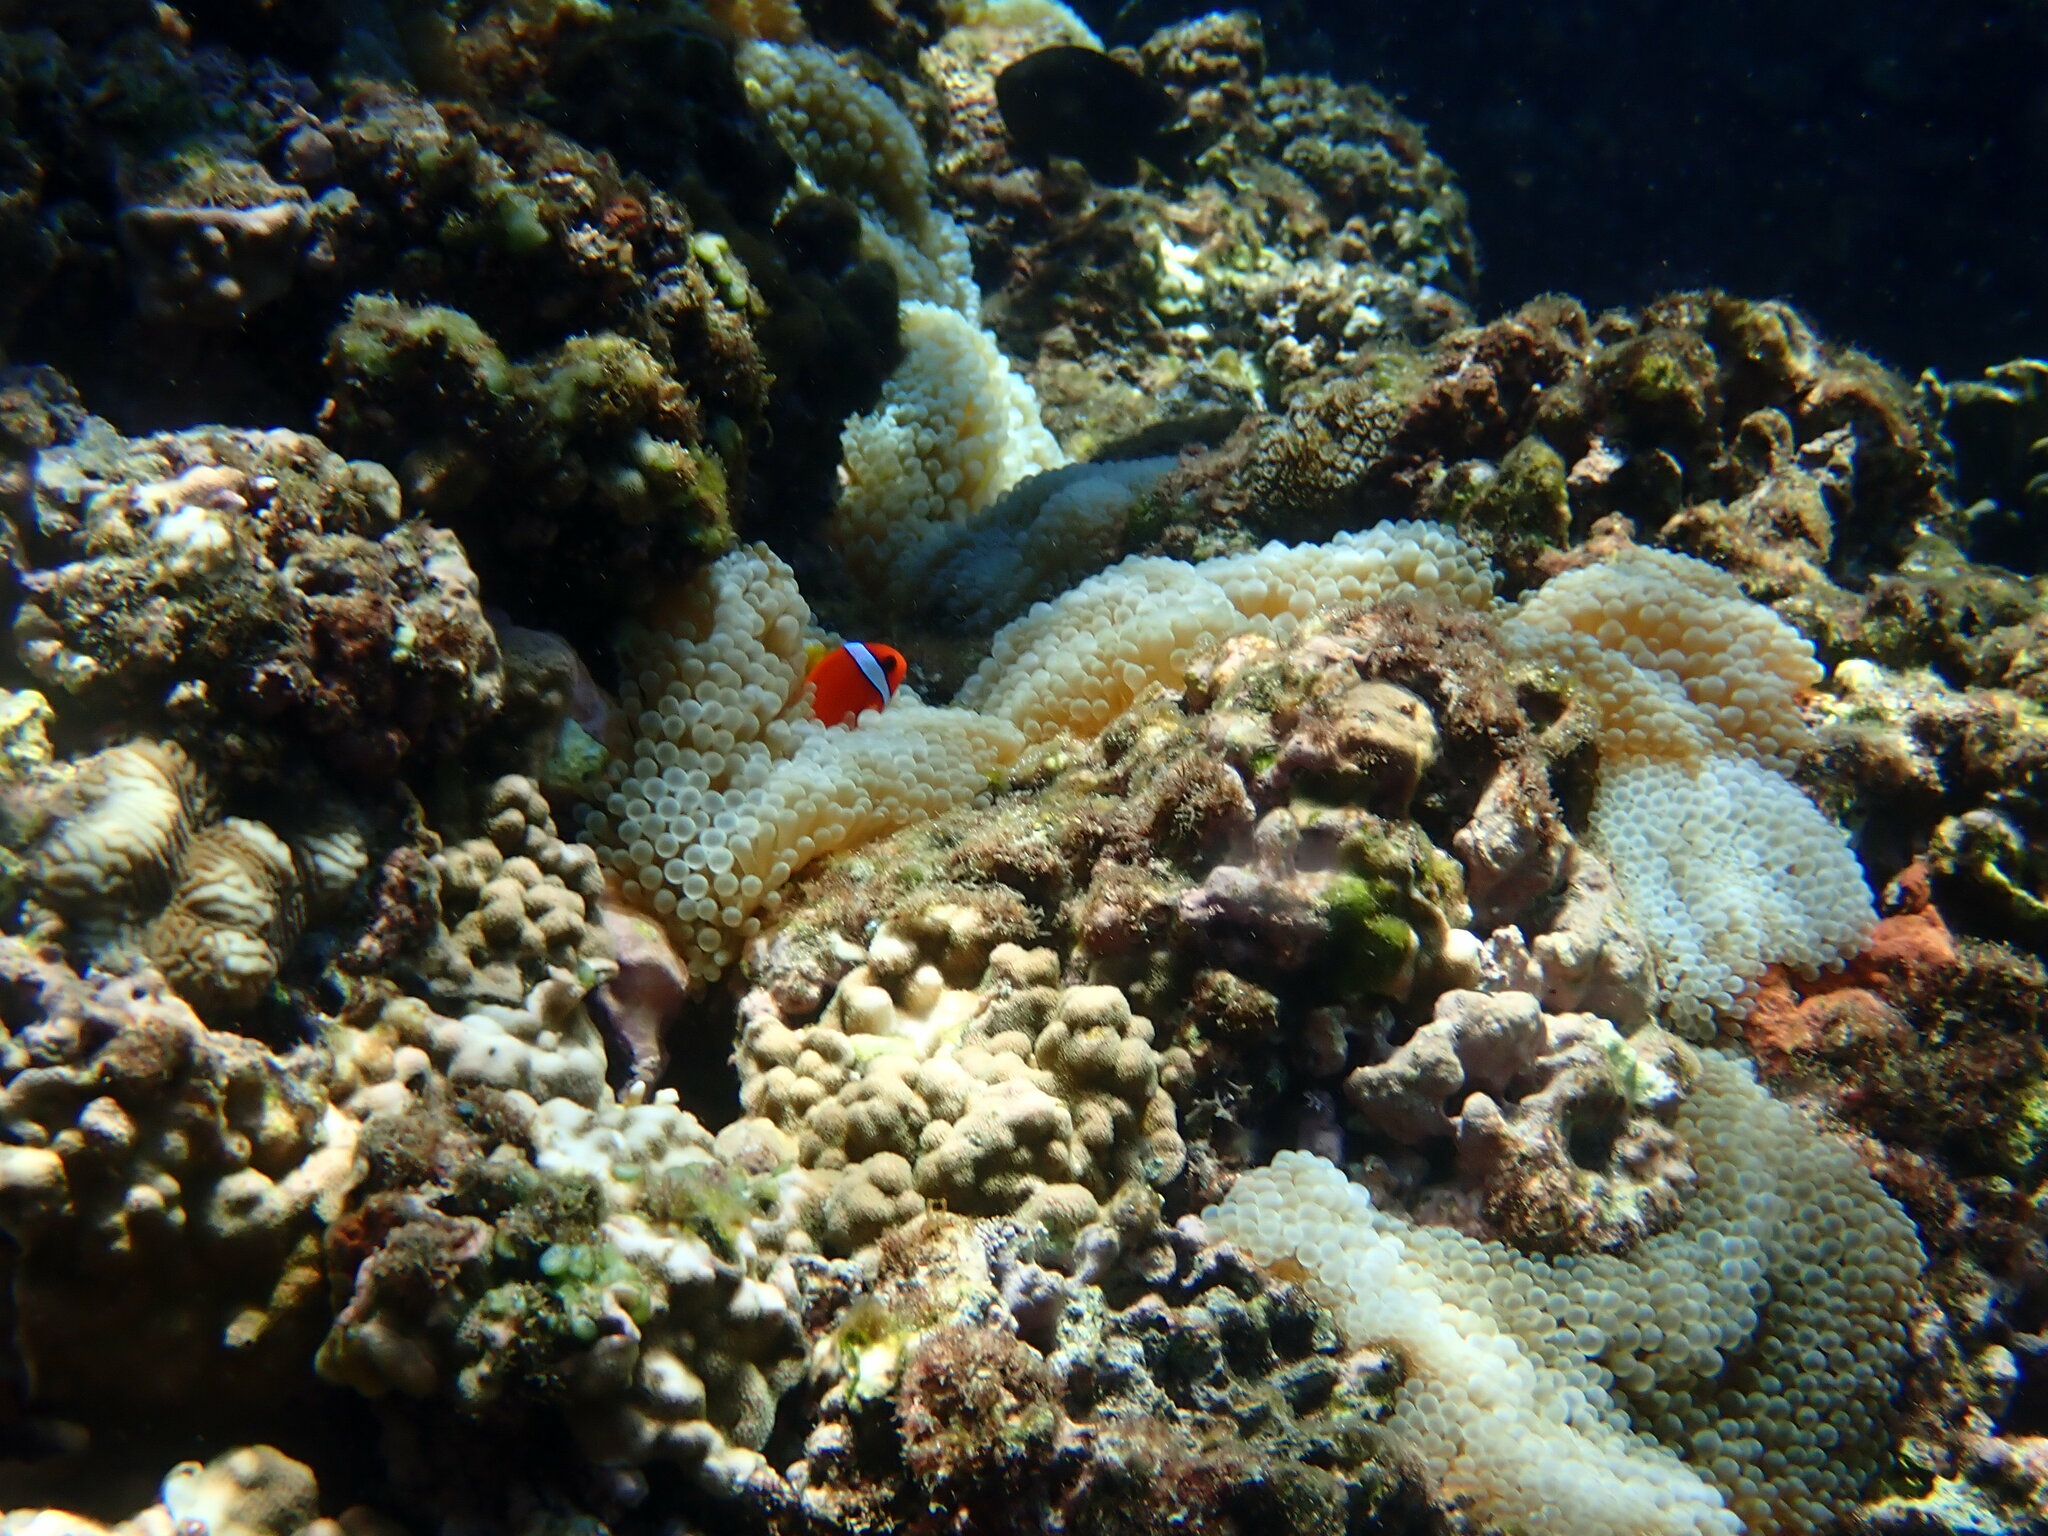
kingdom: Animalia
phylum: Chordata
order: Perciformes
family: Pomacentridae
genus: Amphiprion
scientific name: Amphiprion frenatus
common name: Tomato anemonefish
